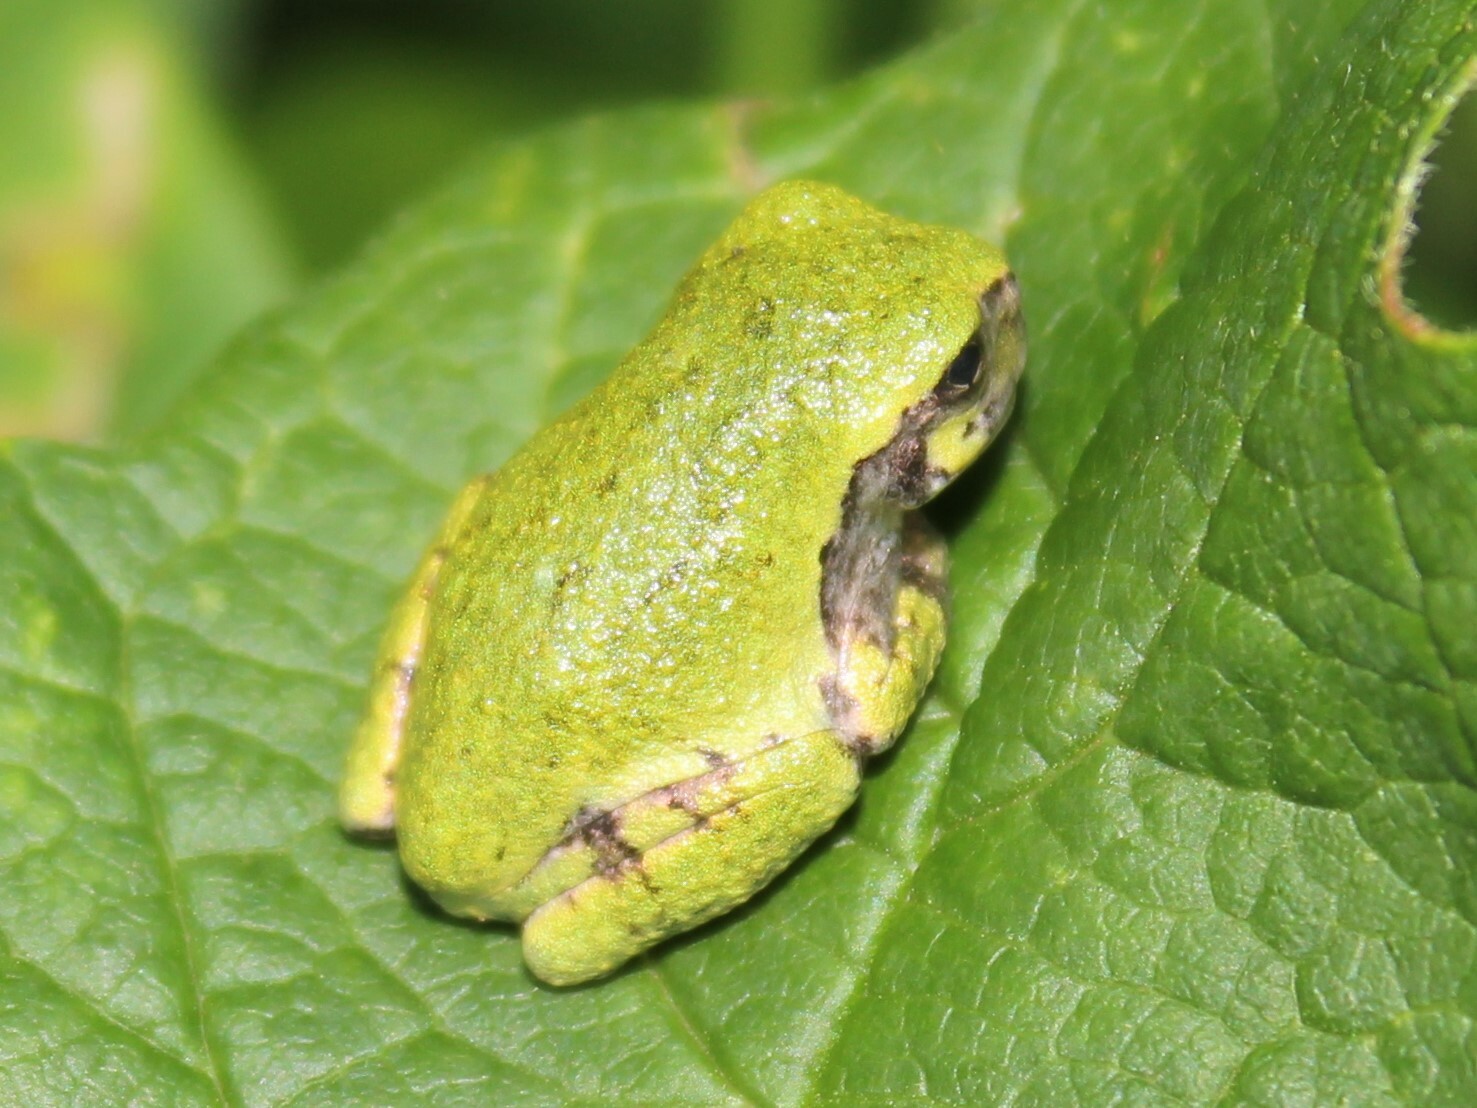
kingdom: Animalia
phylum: Chordata
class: Amphibia
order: Anura
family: Hylidae
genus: Dryophytes
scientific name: Dryophytes versicolor
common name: Gray treefrog
